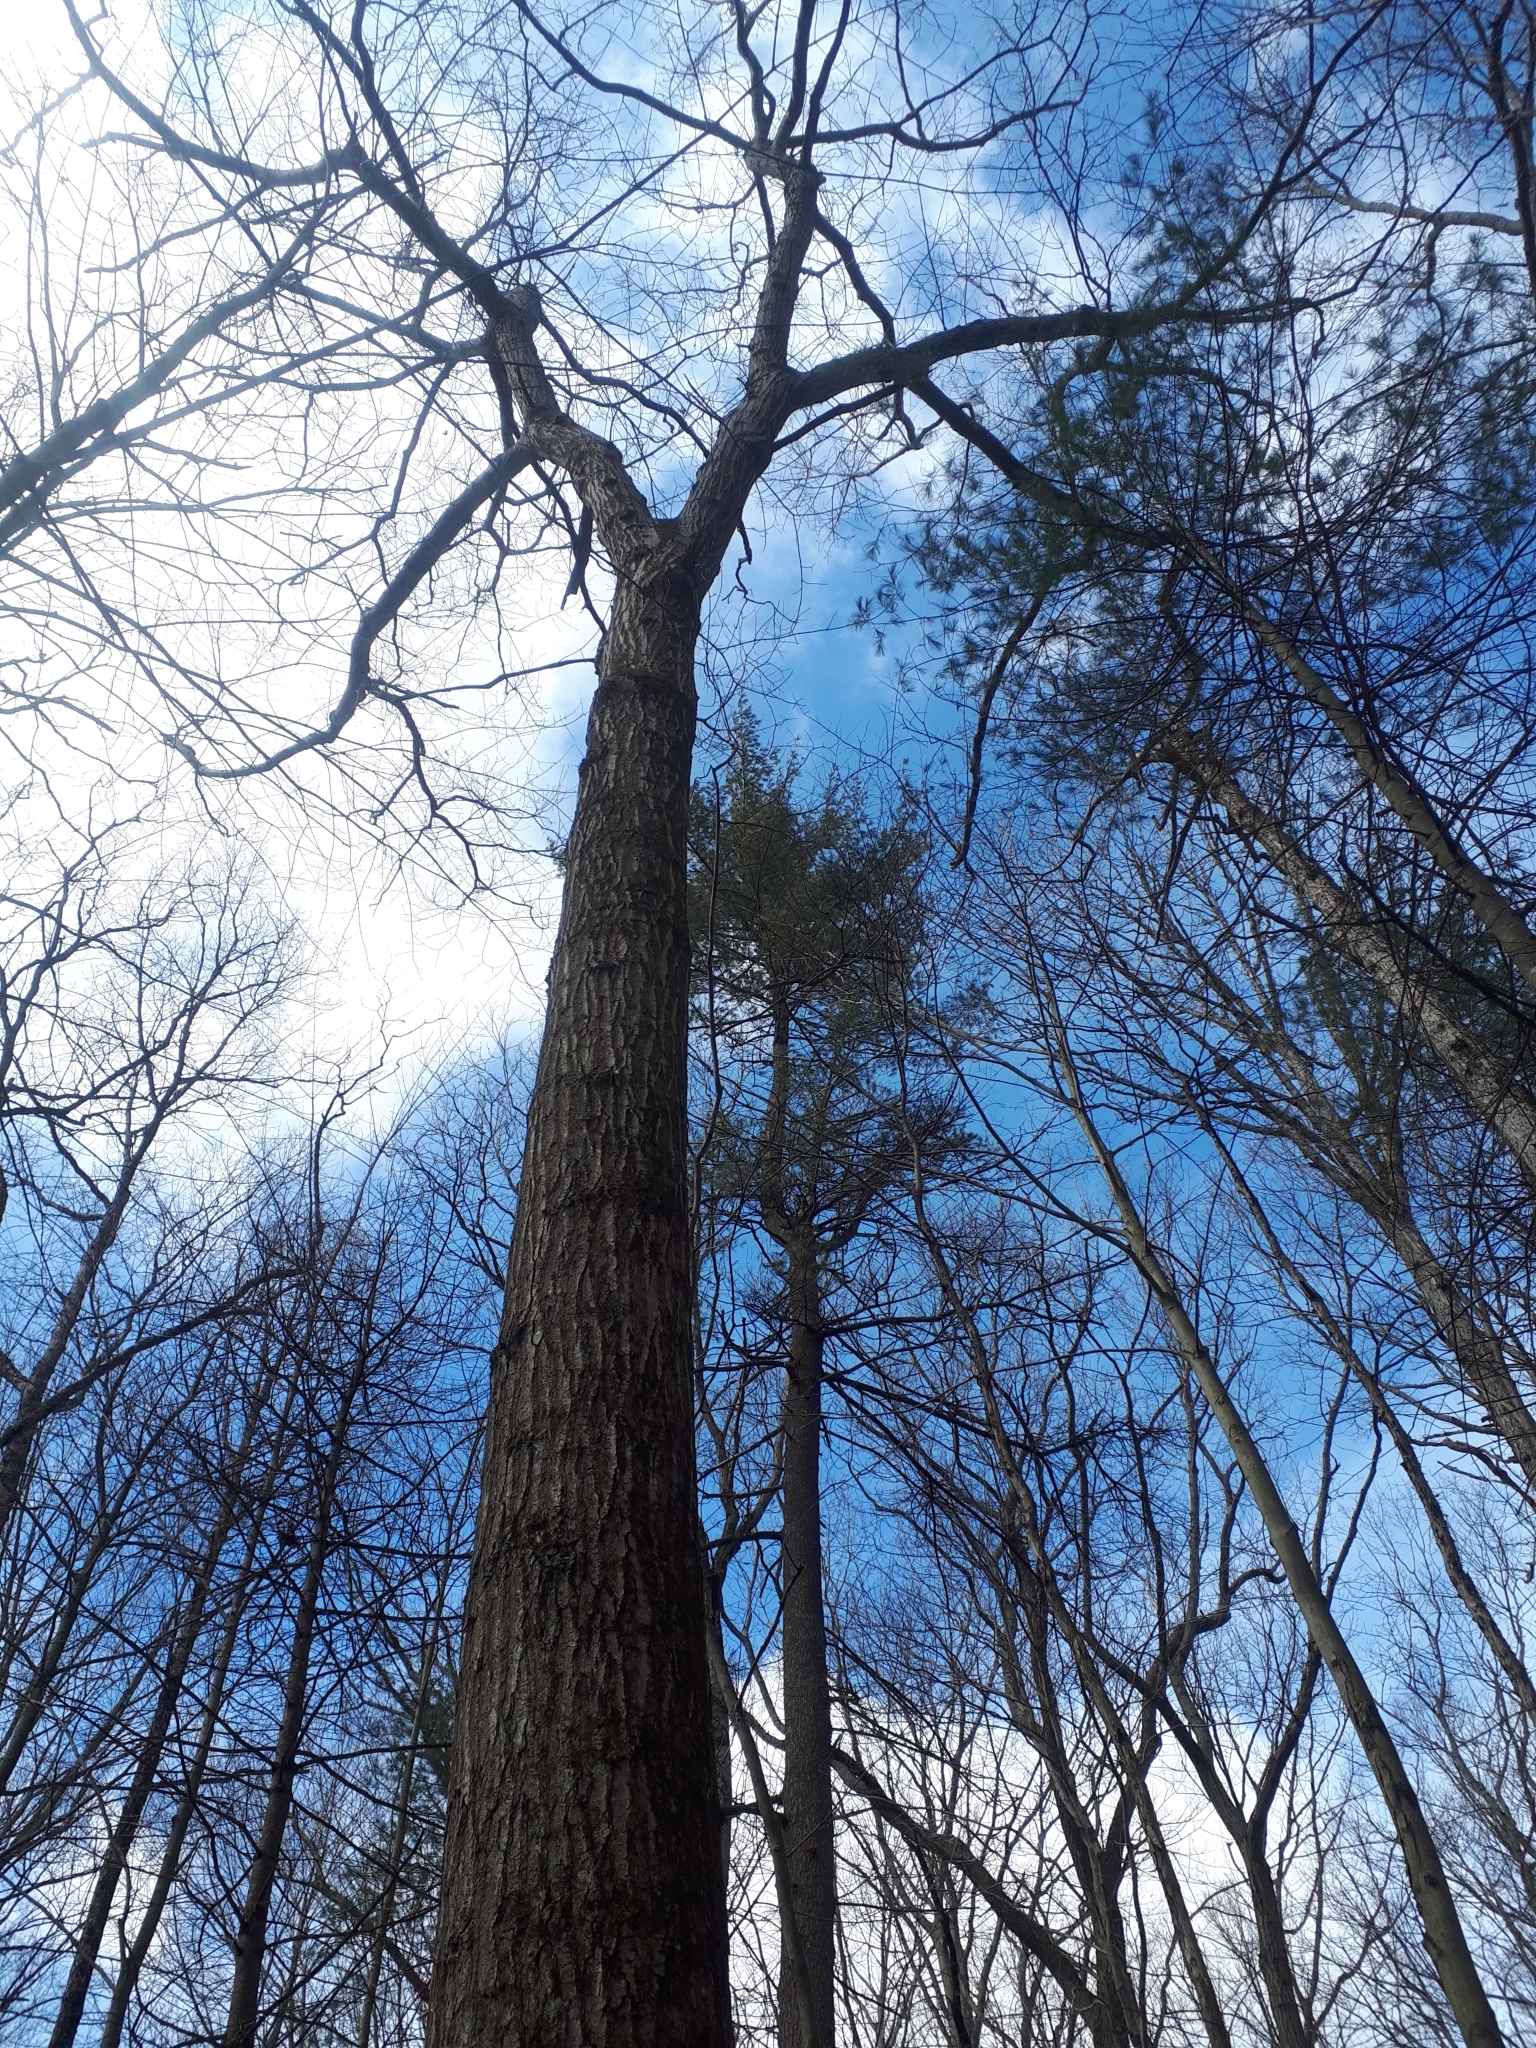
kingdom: Plantae
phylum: Tracheophyta
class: Magnoliopsida
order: Fagales
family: Fagaceae
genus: Quercus
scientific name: Quercus rubra
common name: Red oak
